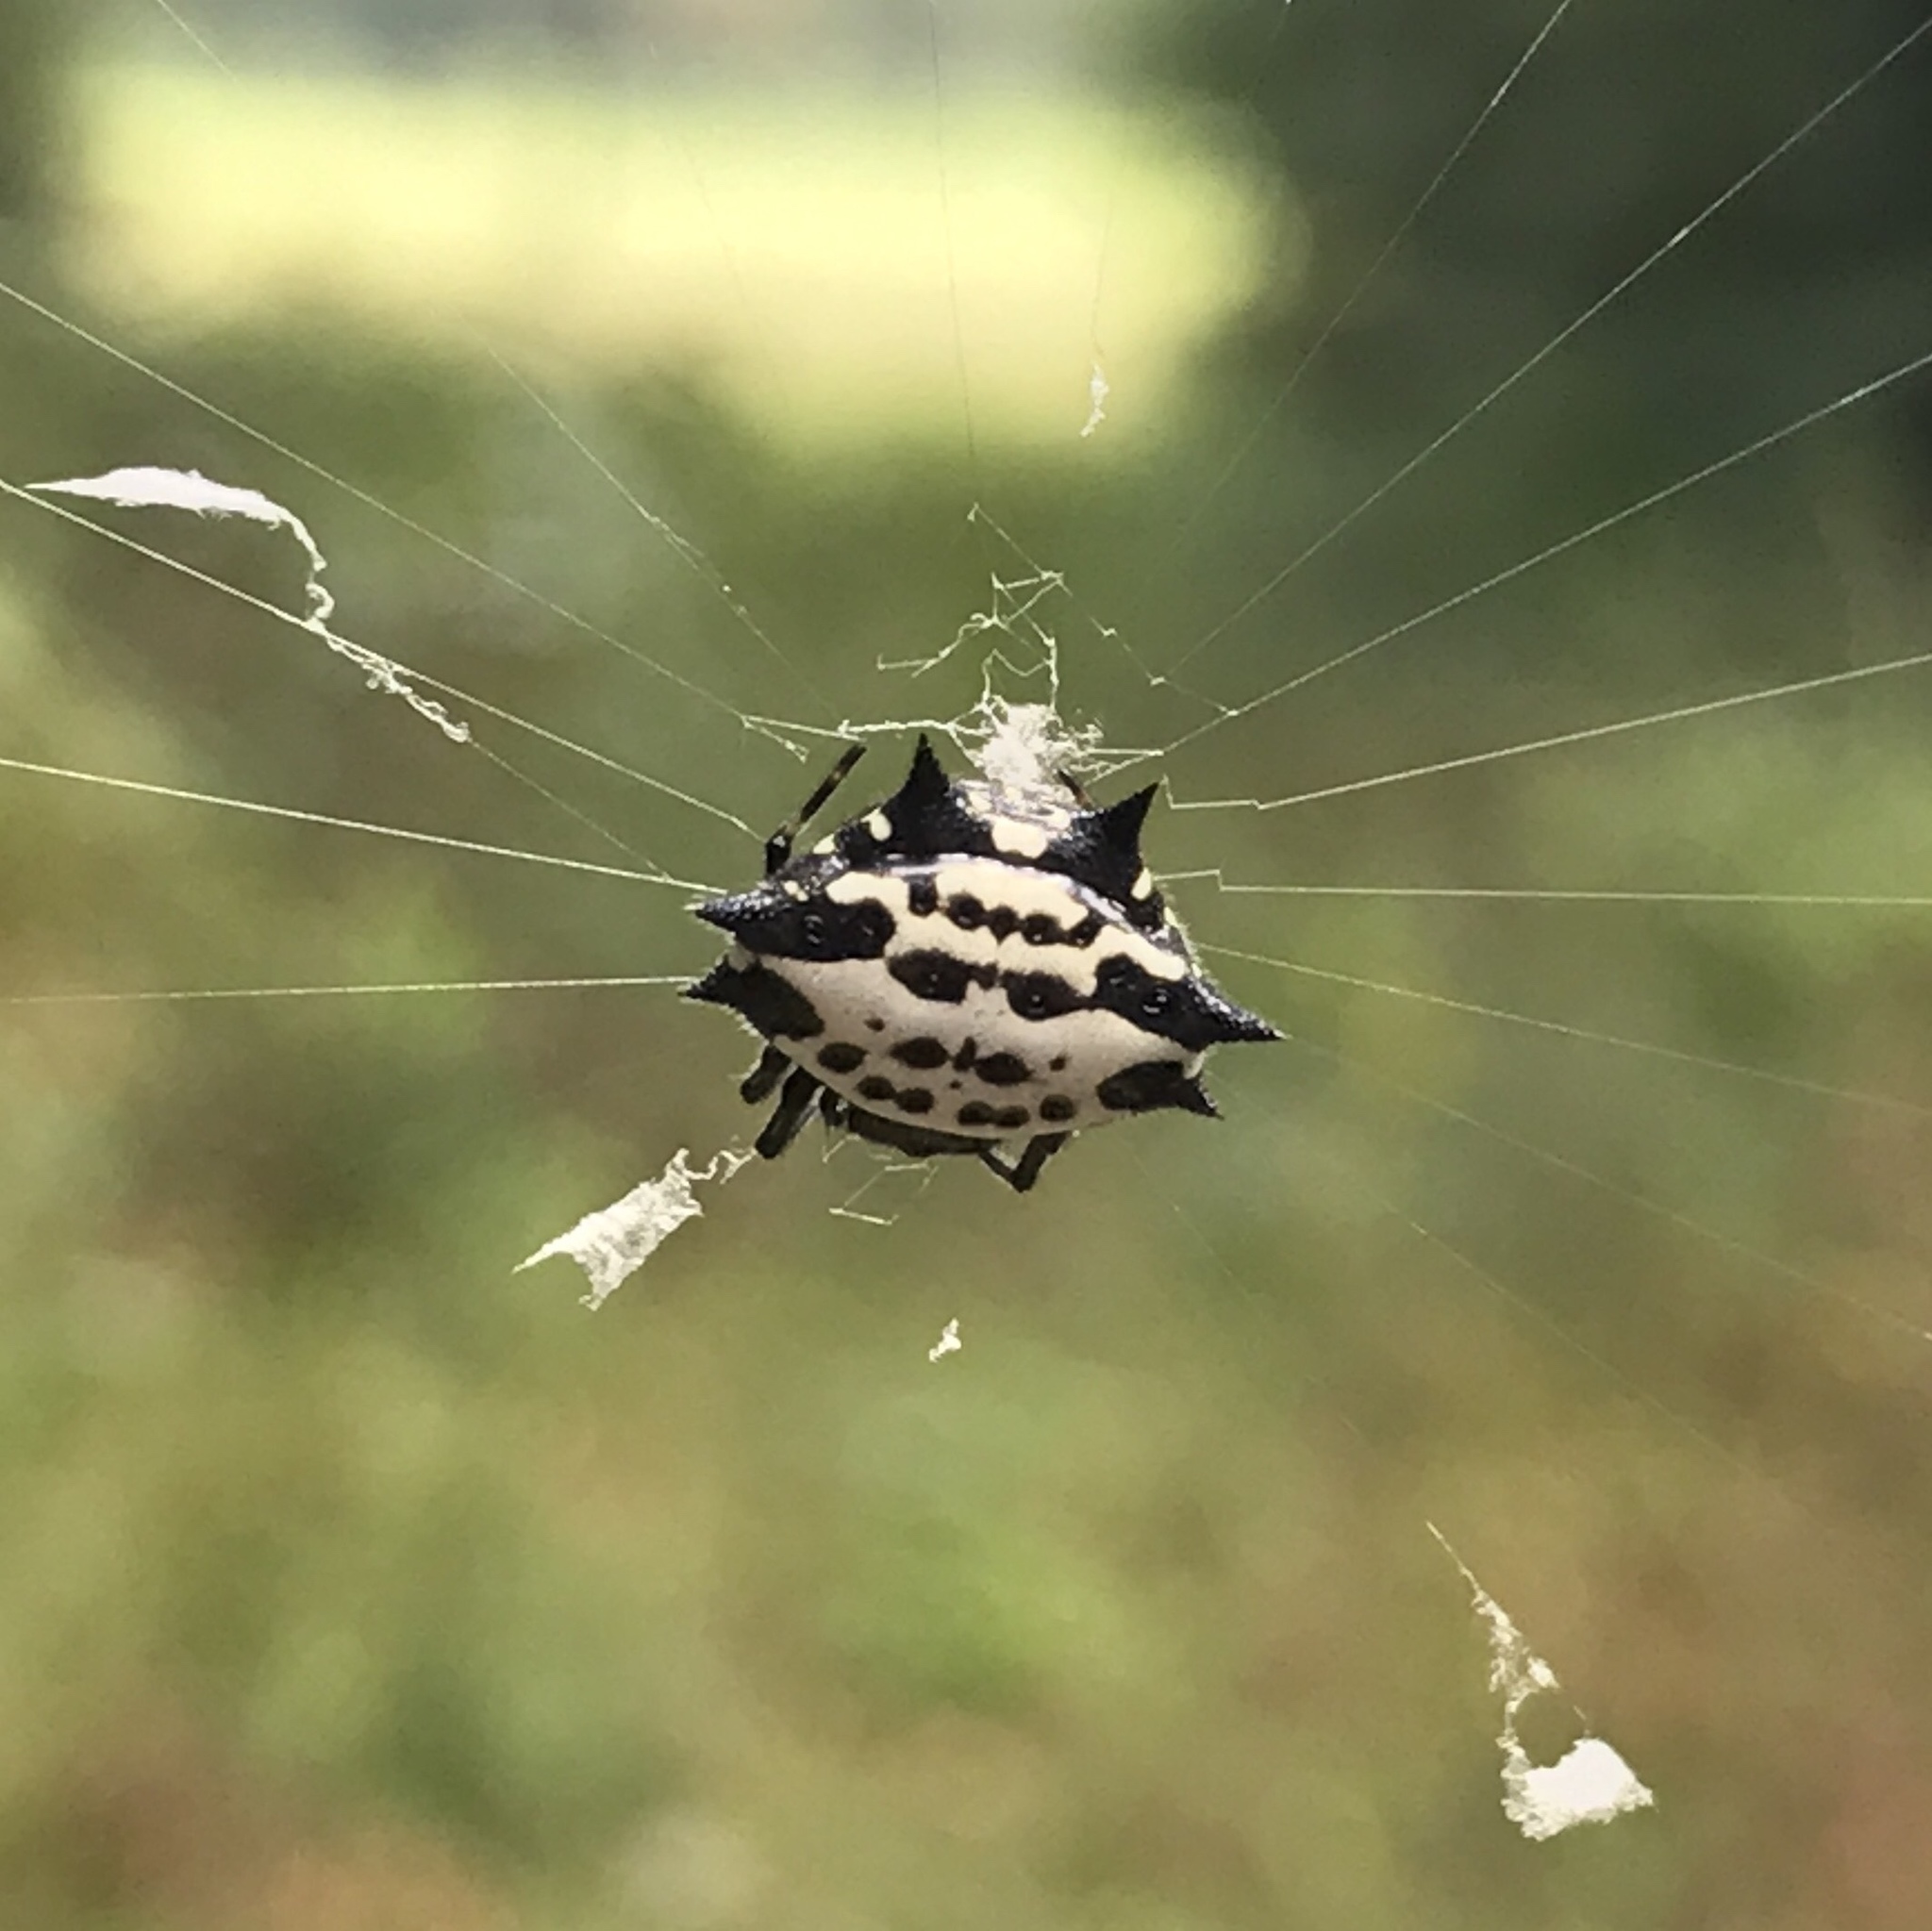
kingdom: Animalia
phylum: Arthropoda
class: Arachnida
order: Araneae
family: Araneidae
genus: Gasteracantha
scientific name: Gasteracantha cancriformis
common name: Orb weavers
